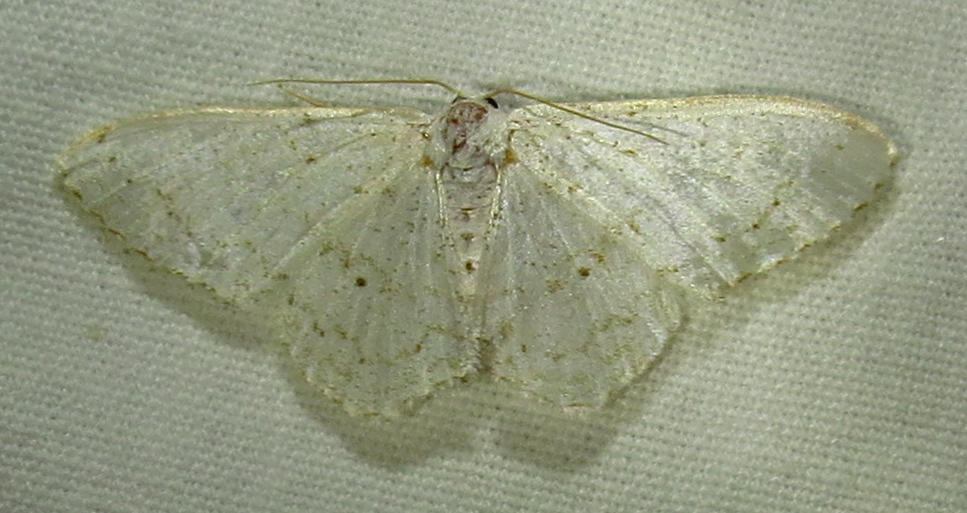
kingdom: Animalia
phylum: Arthropoda
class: Insecta
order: Lepidoptera
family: Geometridae
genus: Idaea
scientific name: Idaea tacturata
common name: Dot-lined wave
